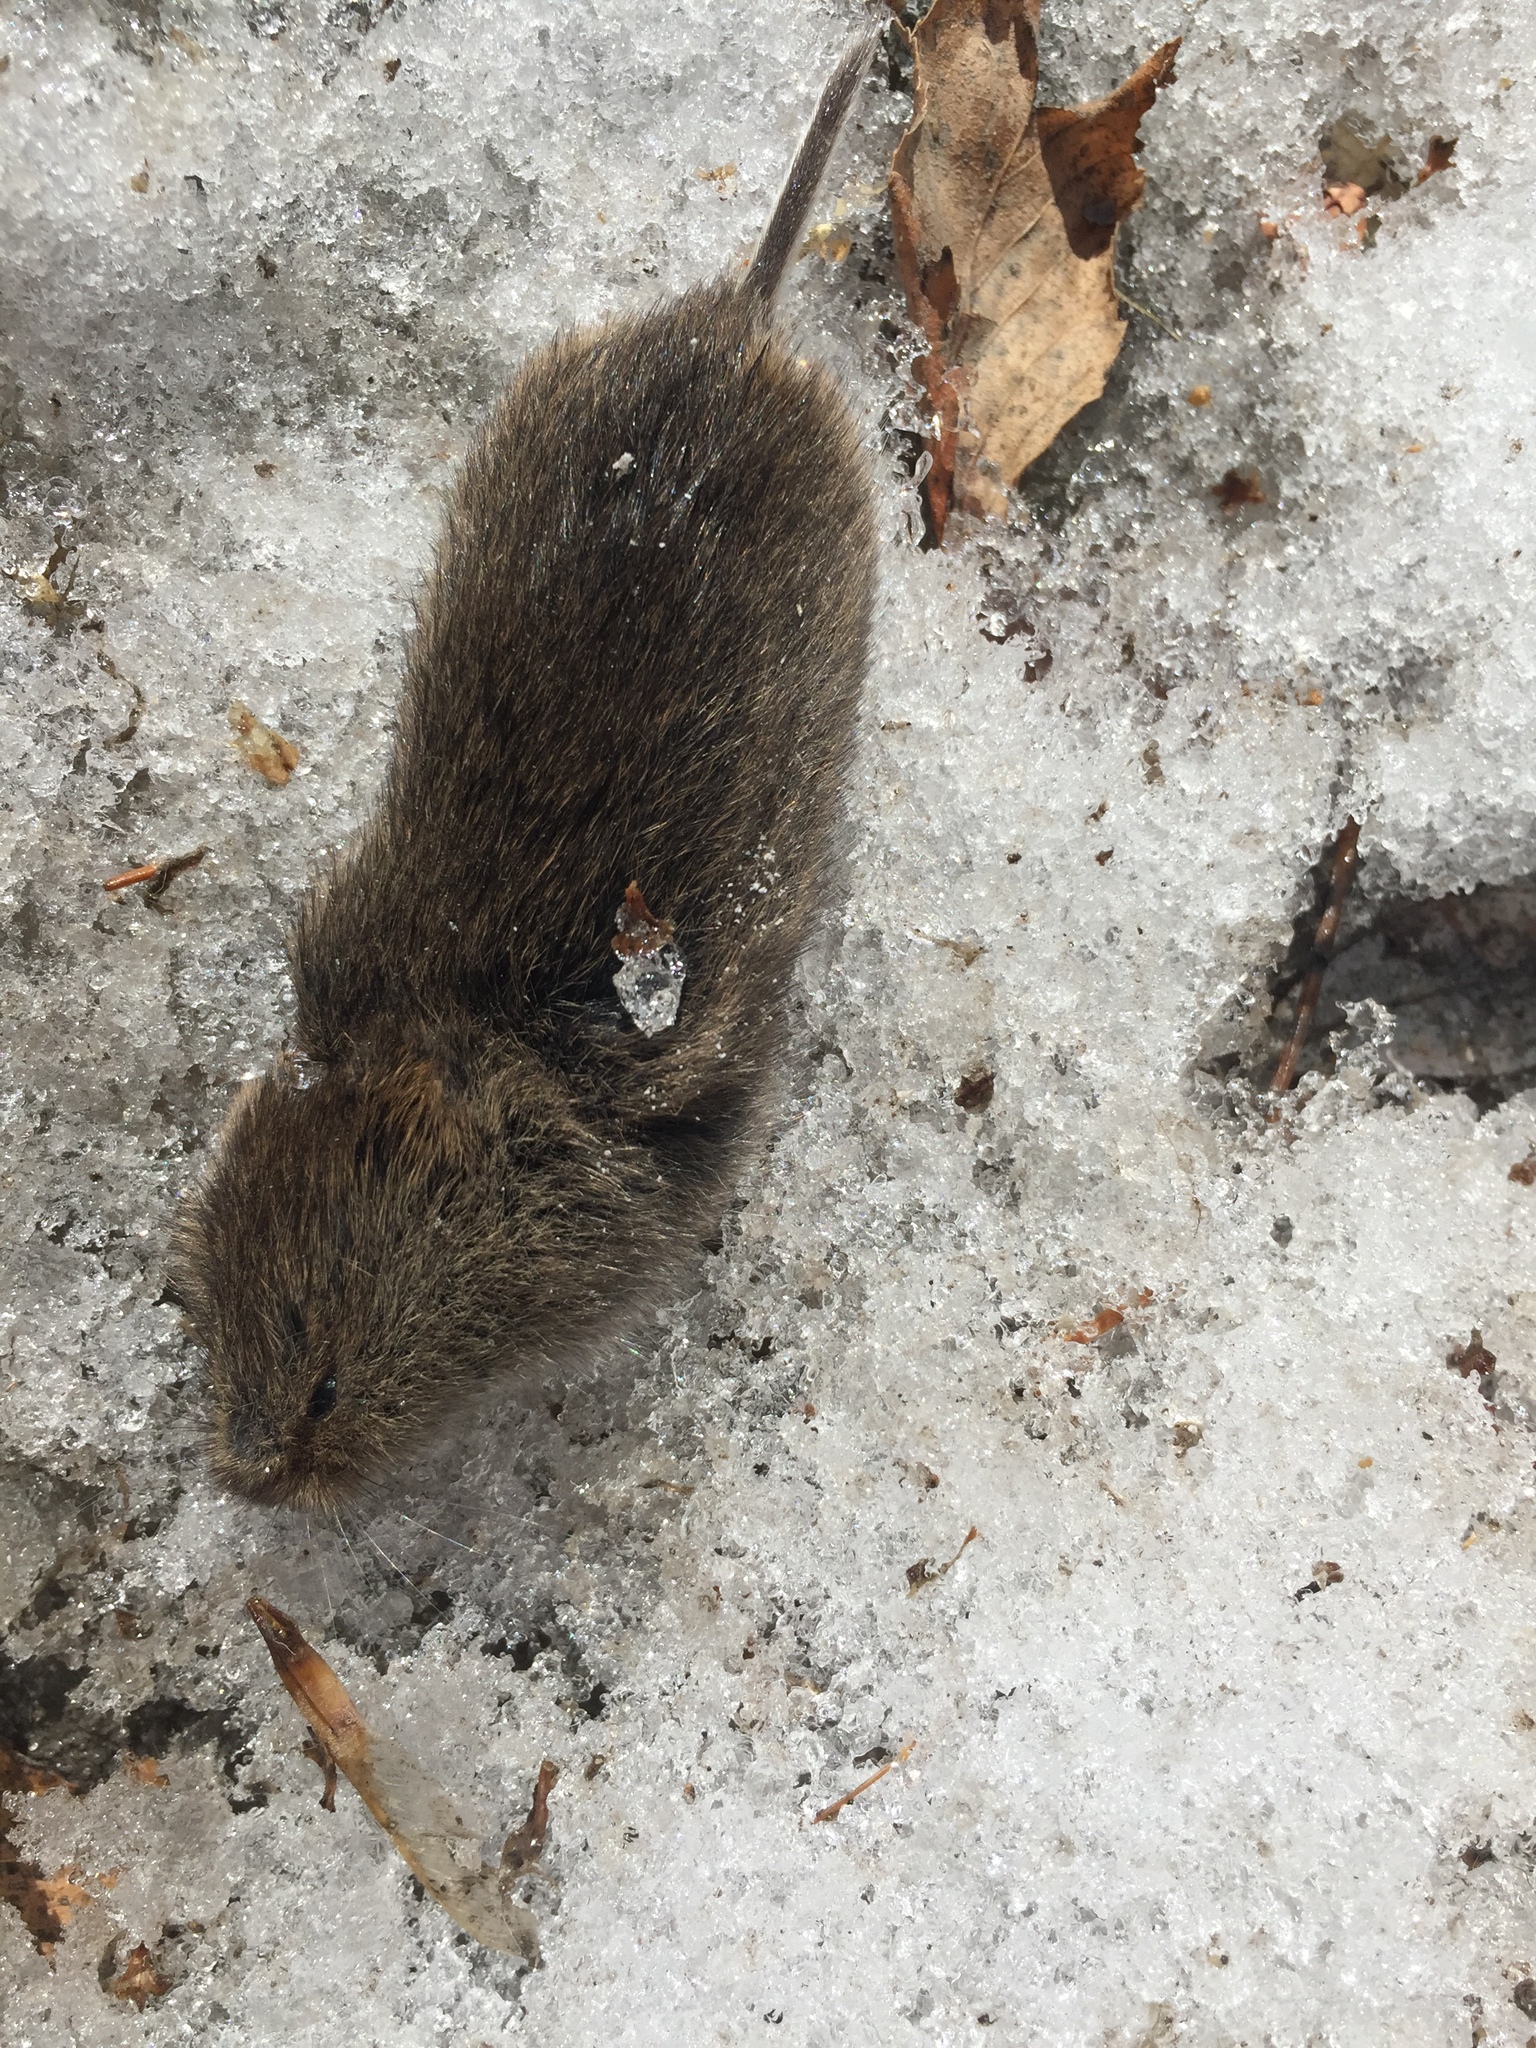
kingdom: Animalia
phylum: Chordata
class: Mammalia
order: Rodentia
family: Cricetidae
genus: Microtus
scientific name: Microtus pennsylvanicus
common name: Meadow vole
